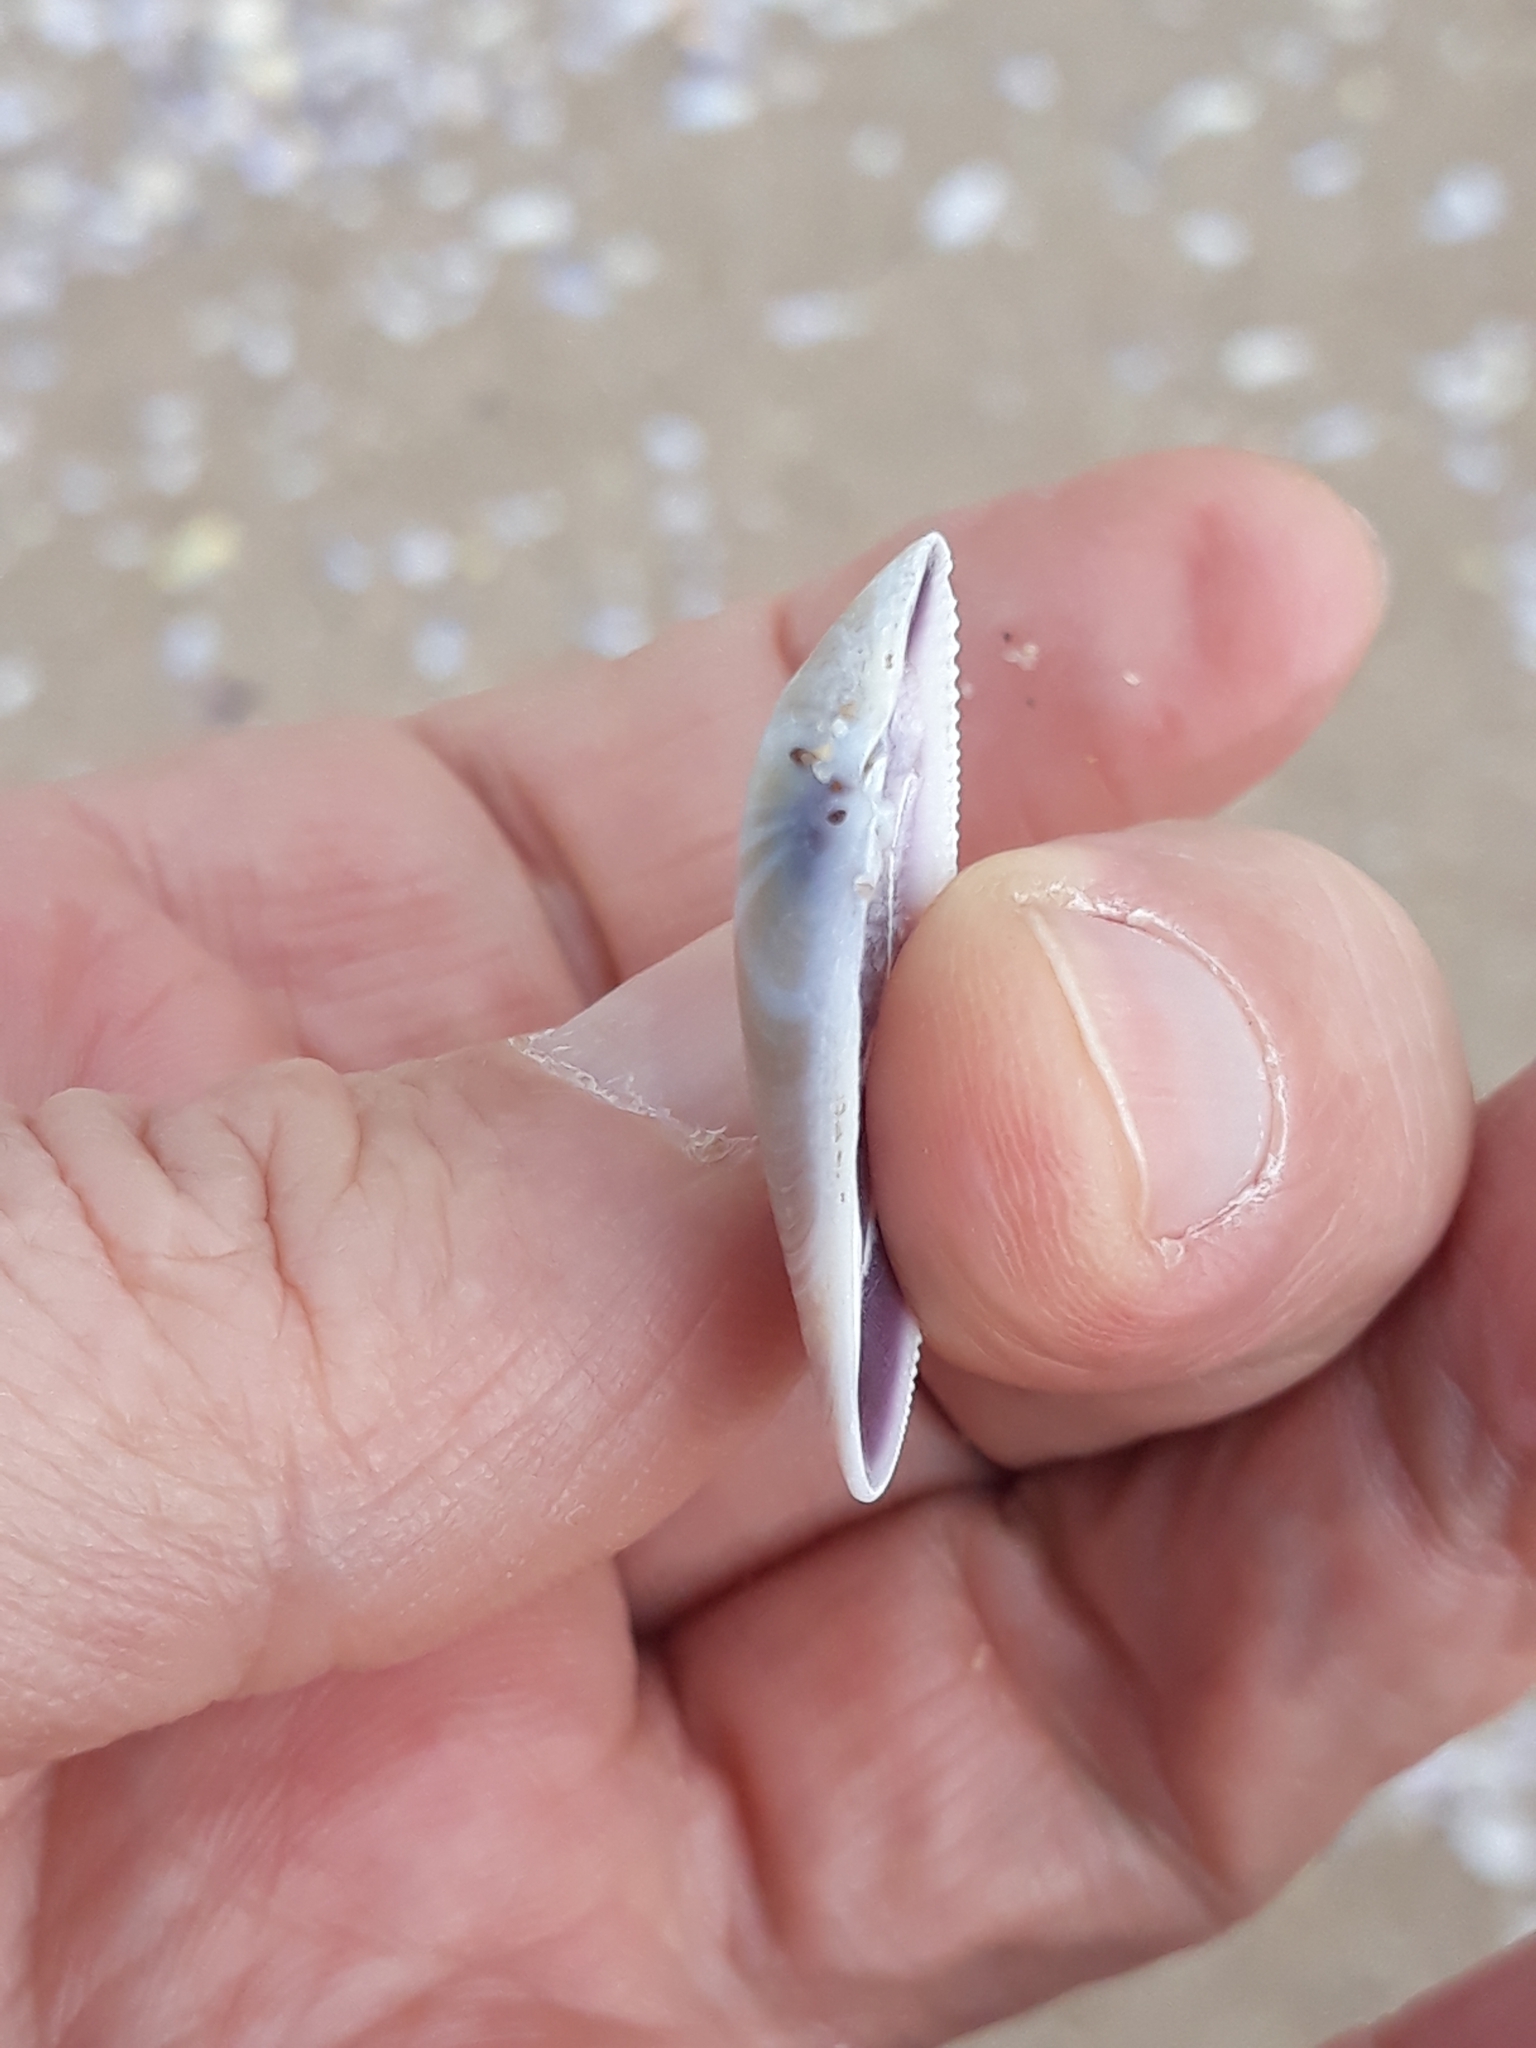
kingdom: Animalia
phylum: Mollusca
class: Bivalvia
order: Cardiida
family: Donacidae
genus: Donax
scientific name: Donax trunculus
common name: Truncate donax
